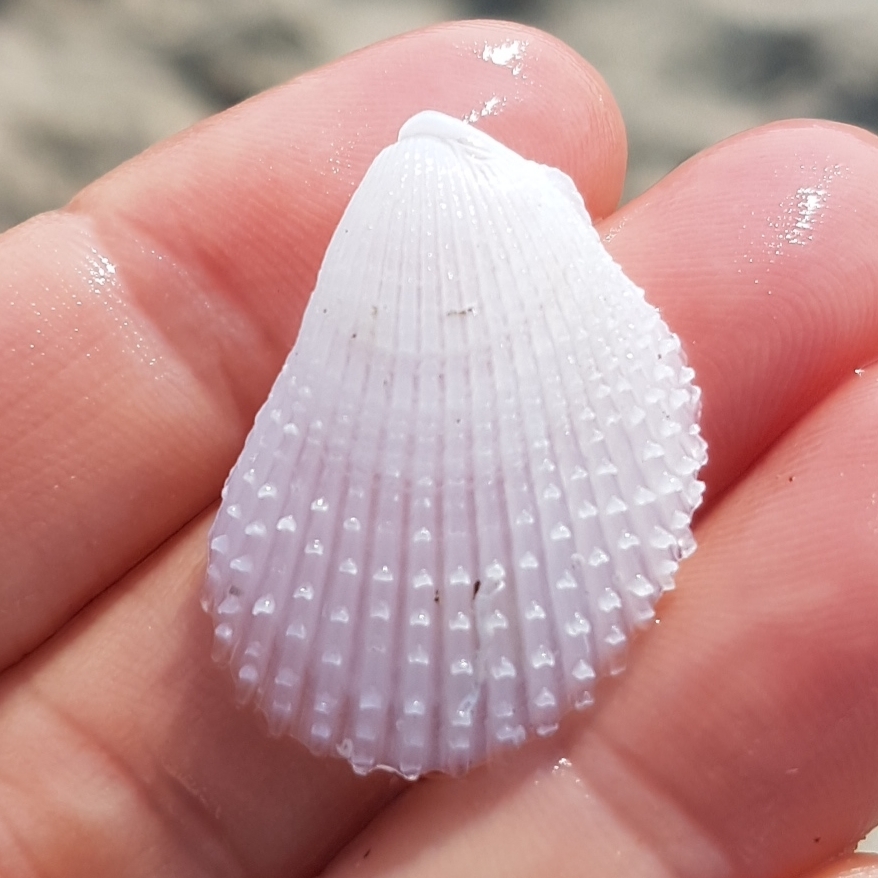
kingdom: Animalia
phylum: Mollusca
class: Bivalvia
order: Limida
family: Limidae
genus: Lima
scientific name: Lima lima
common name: Frilled file shell
